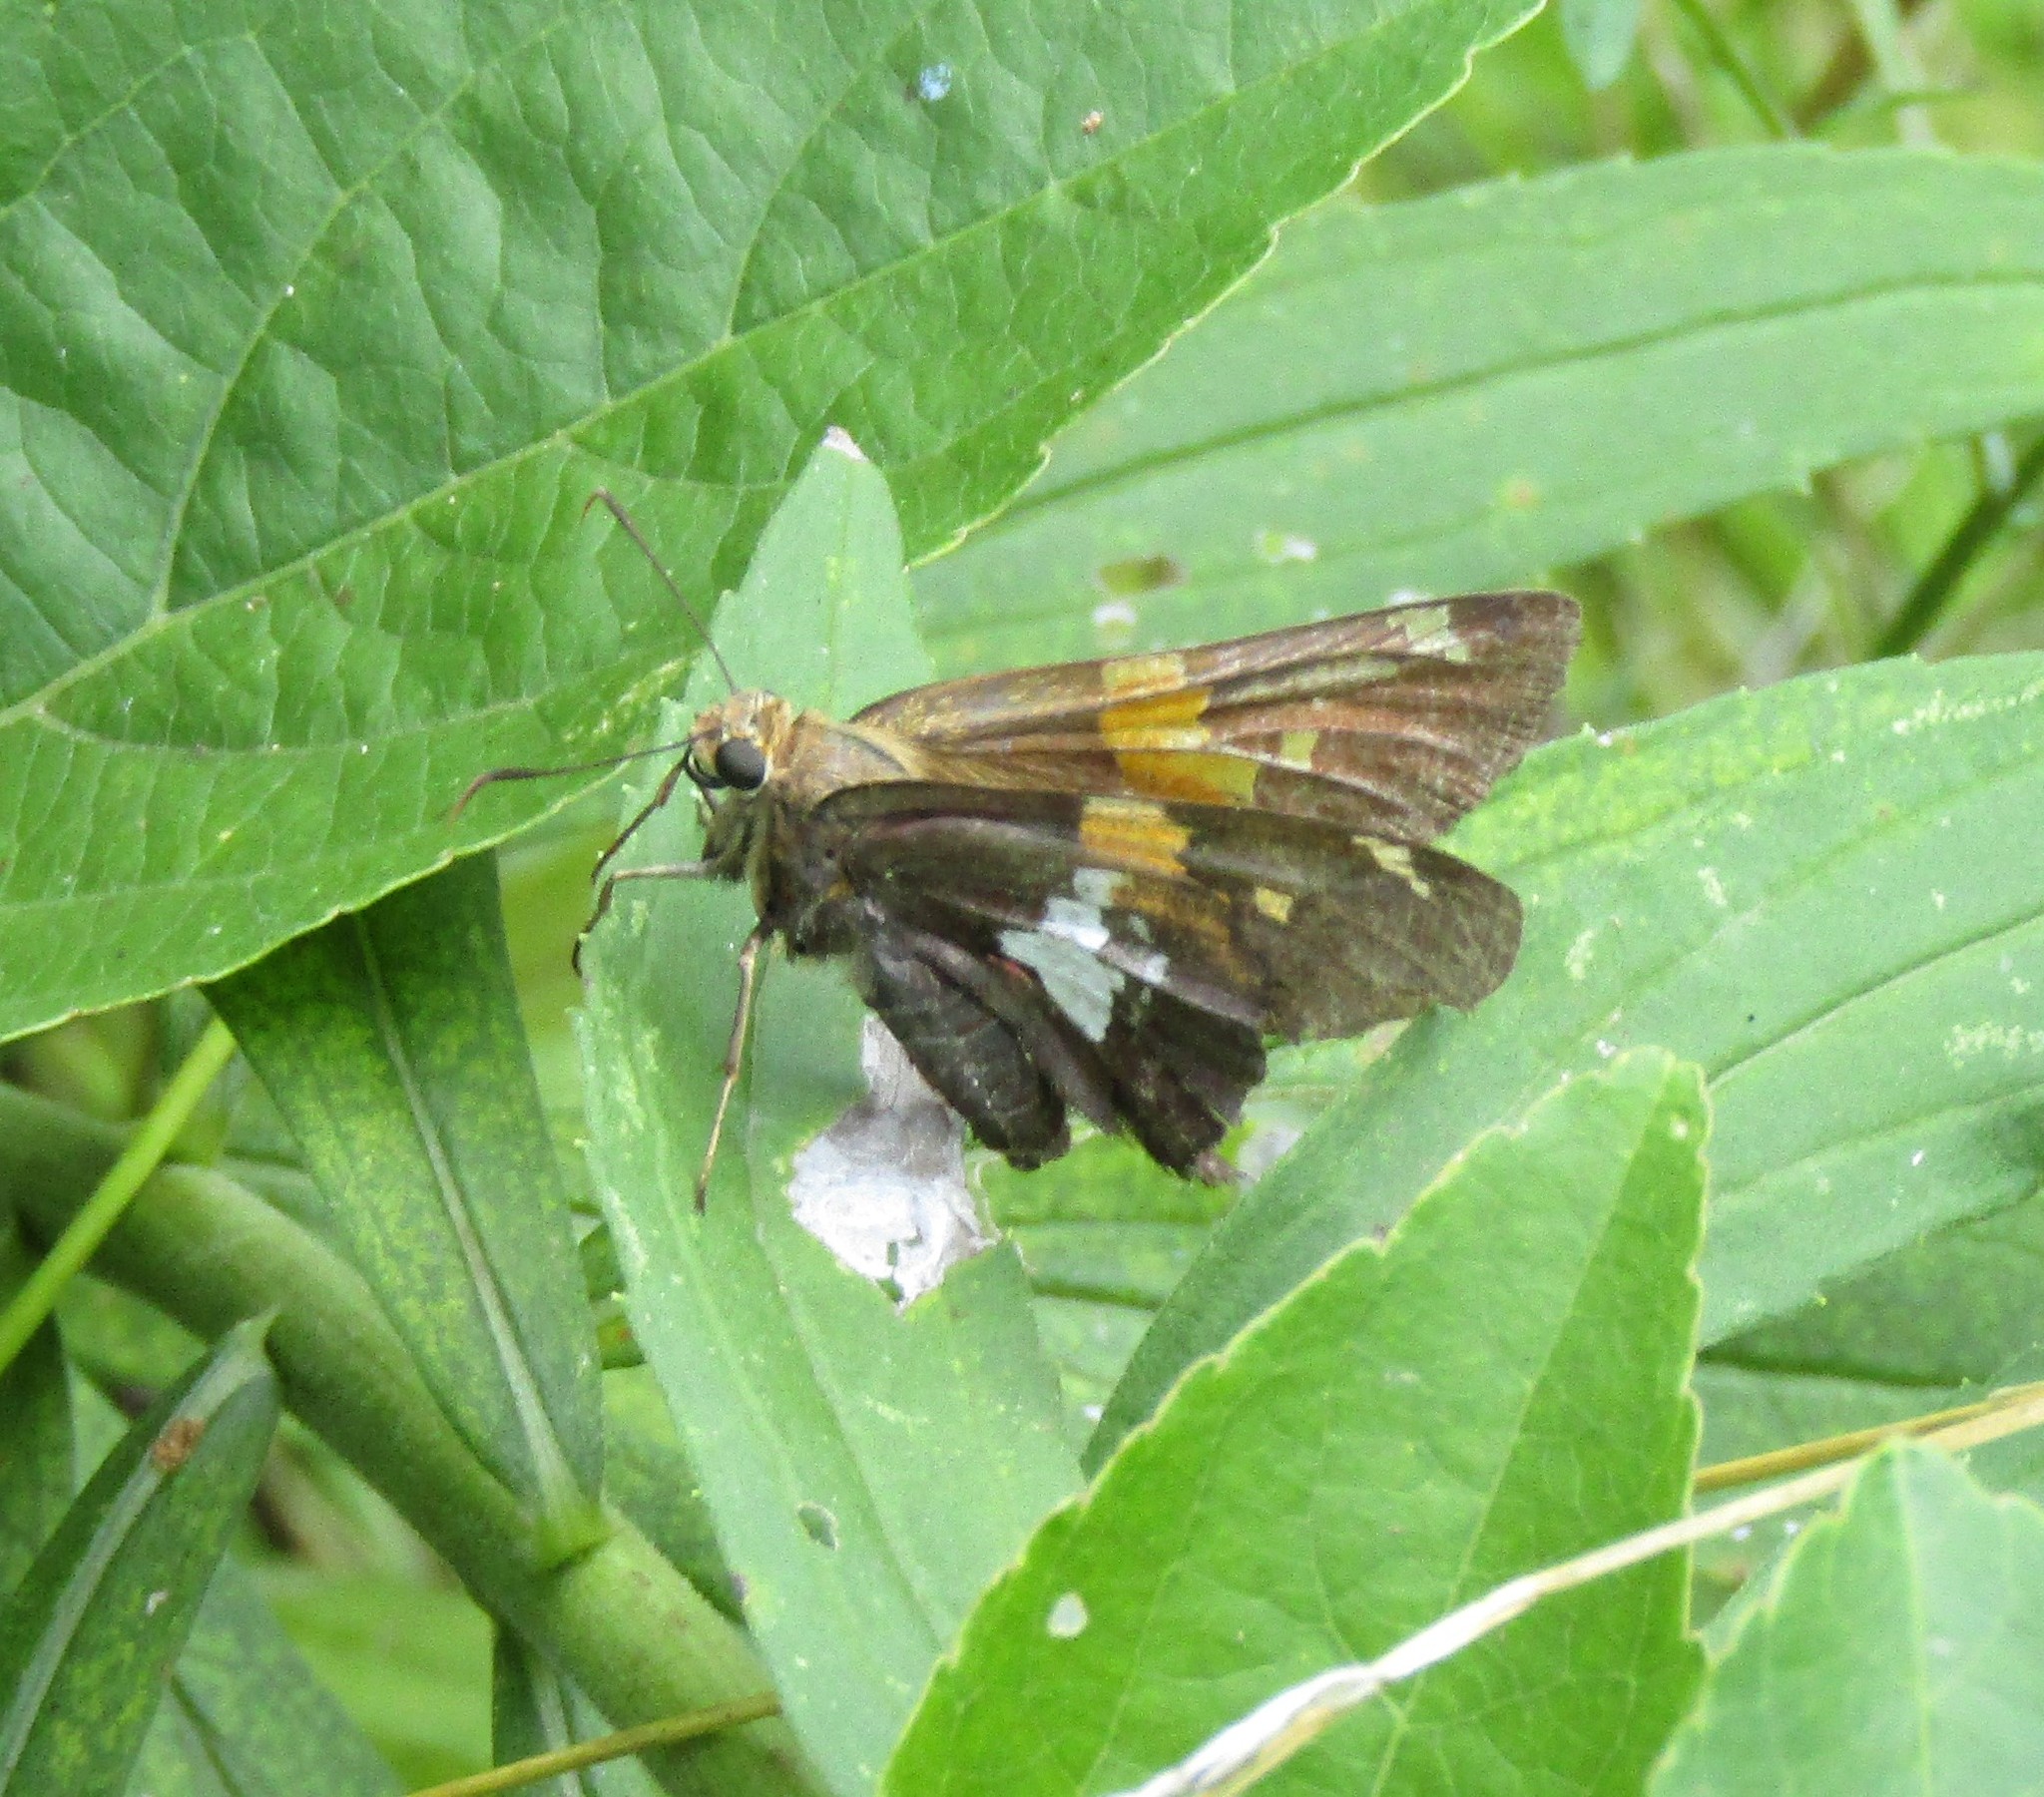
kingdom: Animalia
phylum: Arthropoda
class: Insecta
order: Lepidoptera
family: Hesperiidae
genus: Epargyreus
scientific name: Epargyreus clarus
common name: Silver-spotted skipper
